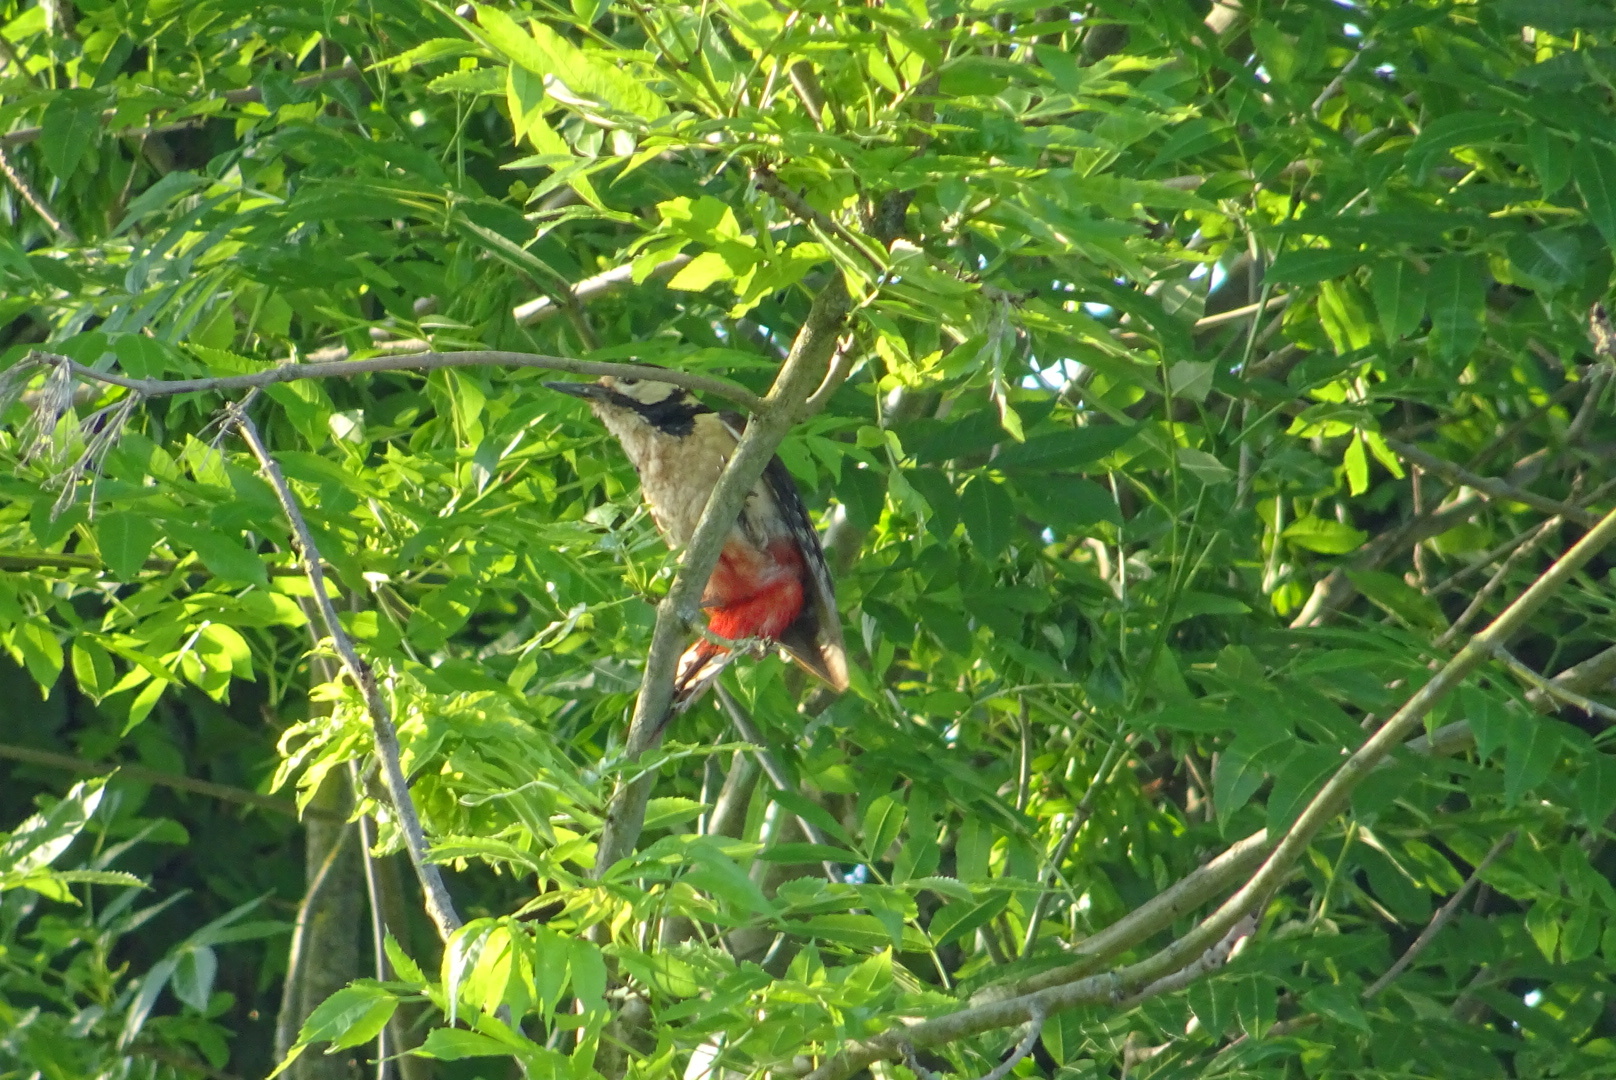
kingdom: Animalia
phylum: Chordata
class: Aves
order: Piciformes
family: Picidae
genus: Dendrocopos
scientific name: Dendrocopos major
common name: Great spotted woodpecker
